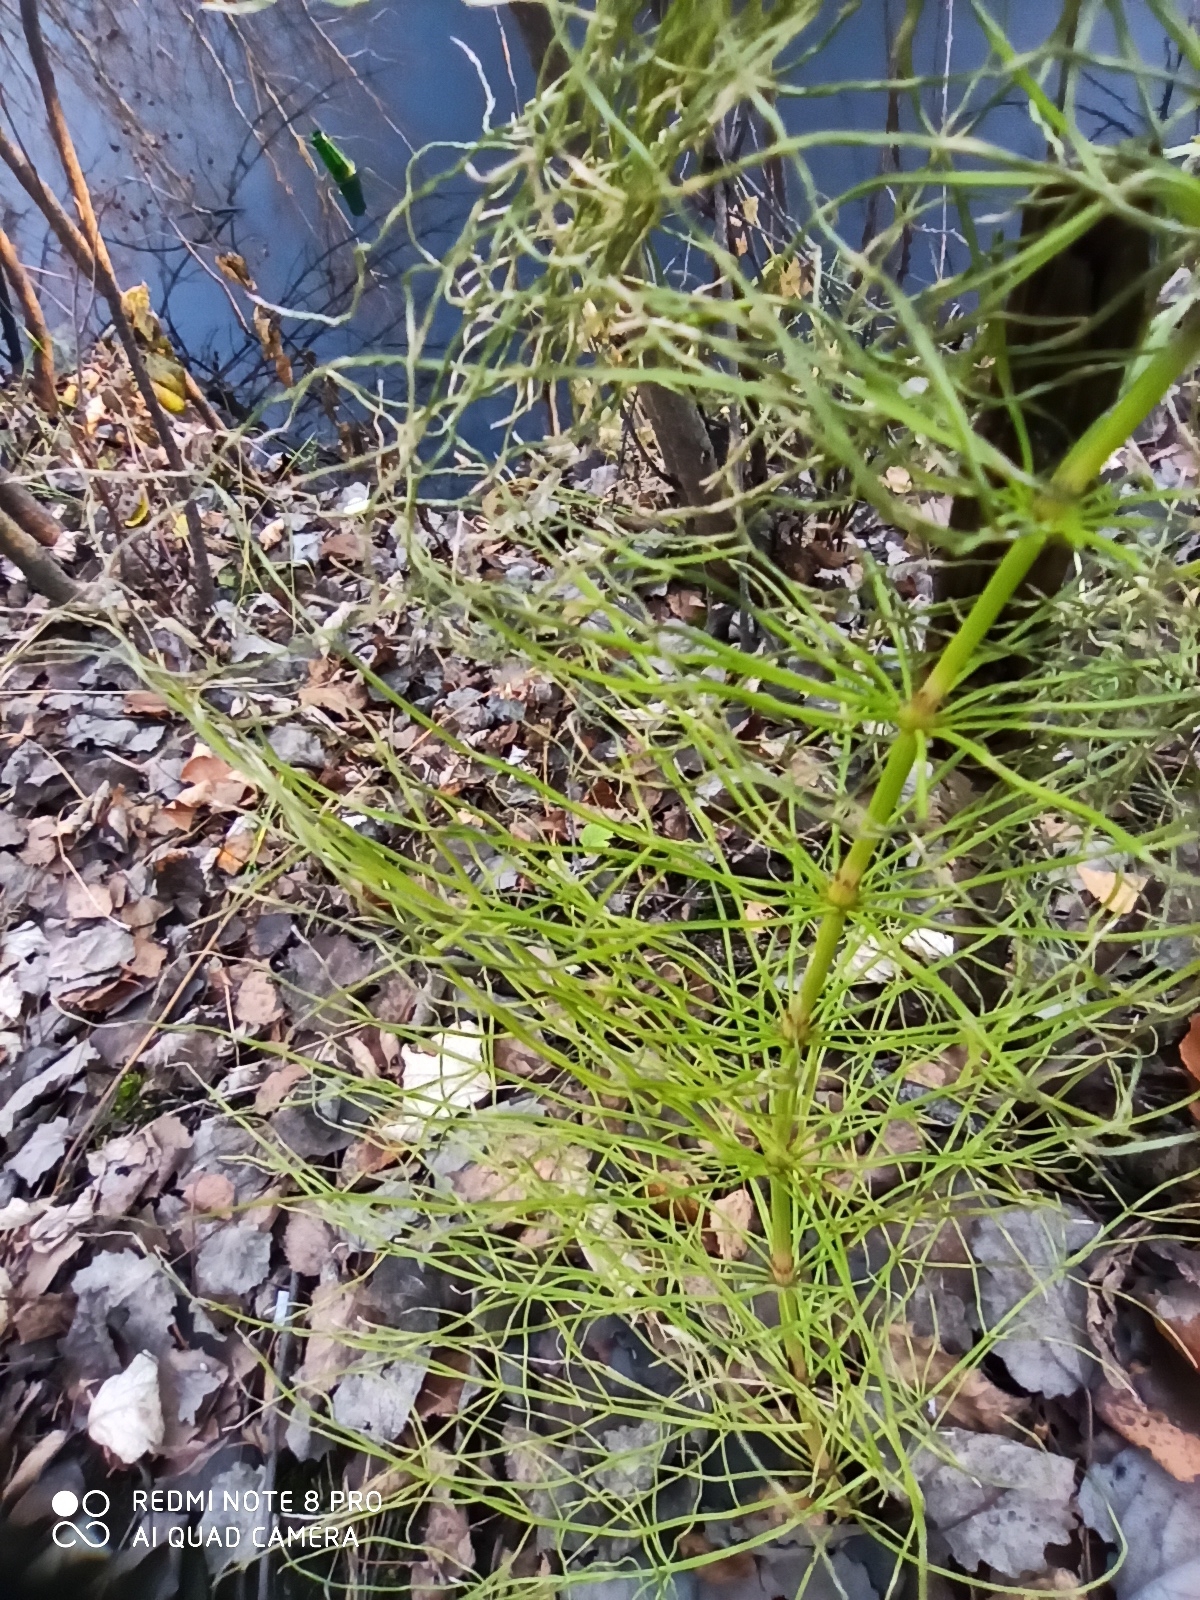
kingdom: Plantae
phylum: Tracheophyta
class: Polypodiopsida
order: Equisetales
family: Equisetaceae
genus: Equisetum
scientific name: Equisetum arvense
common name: Field horsetail
